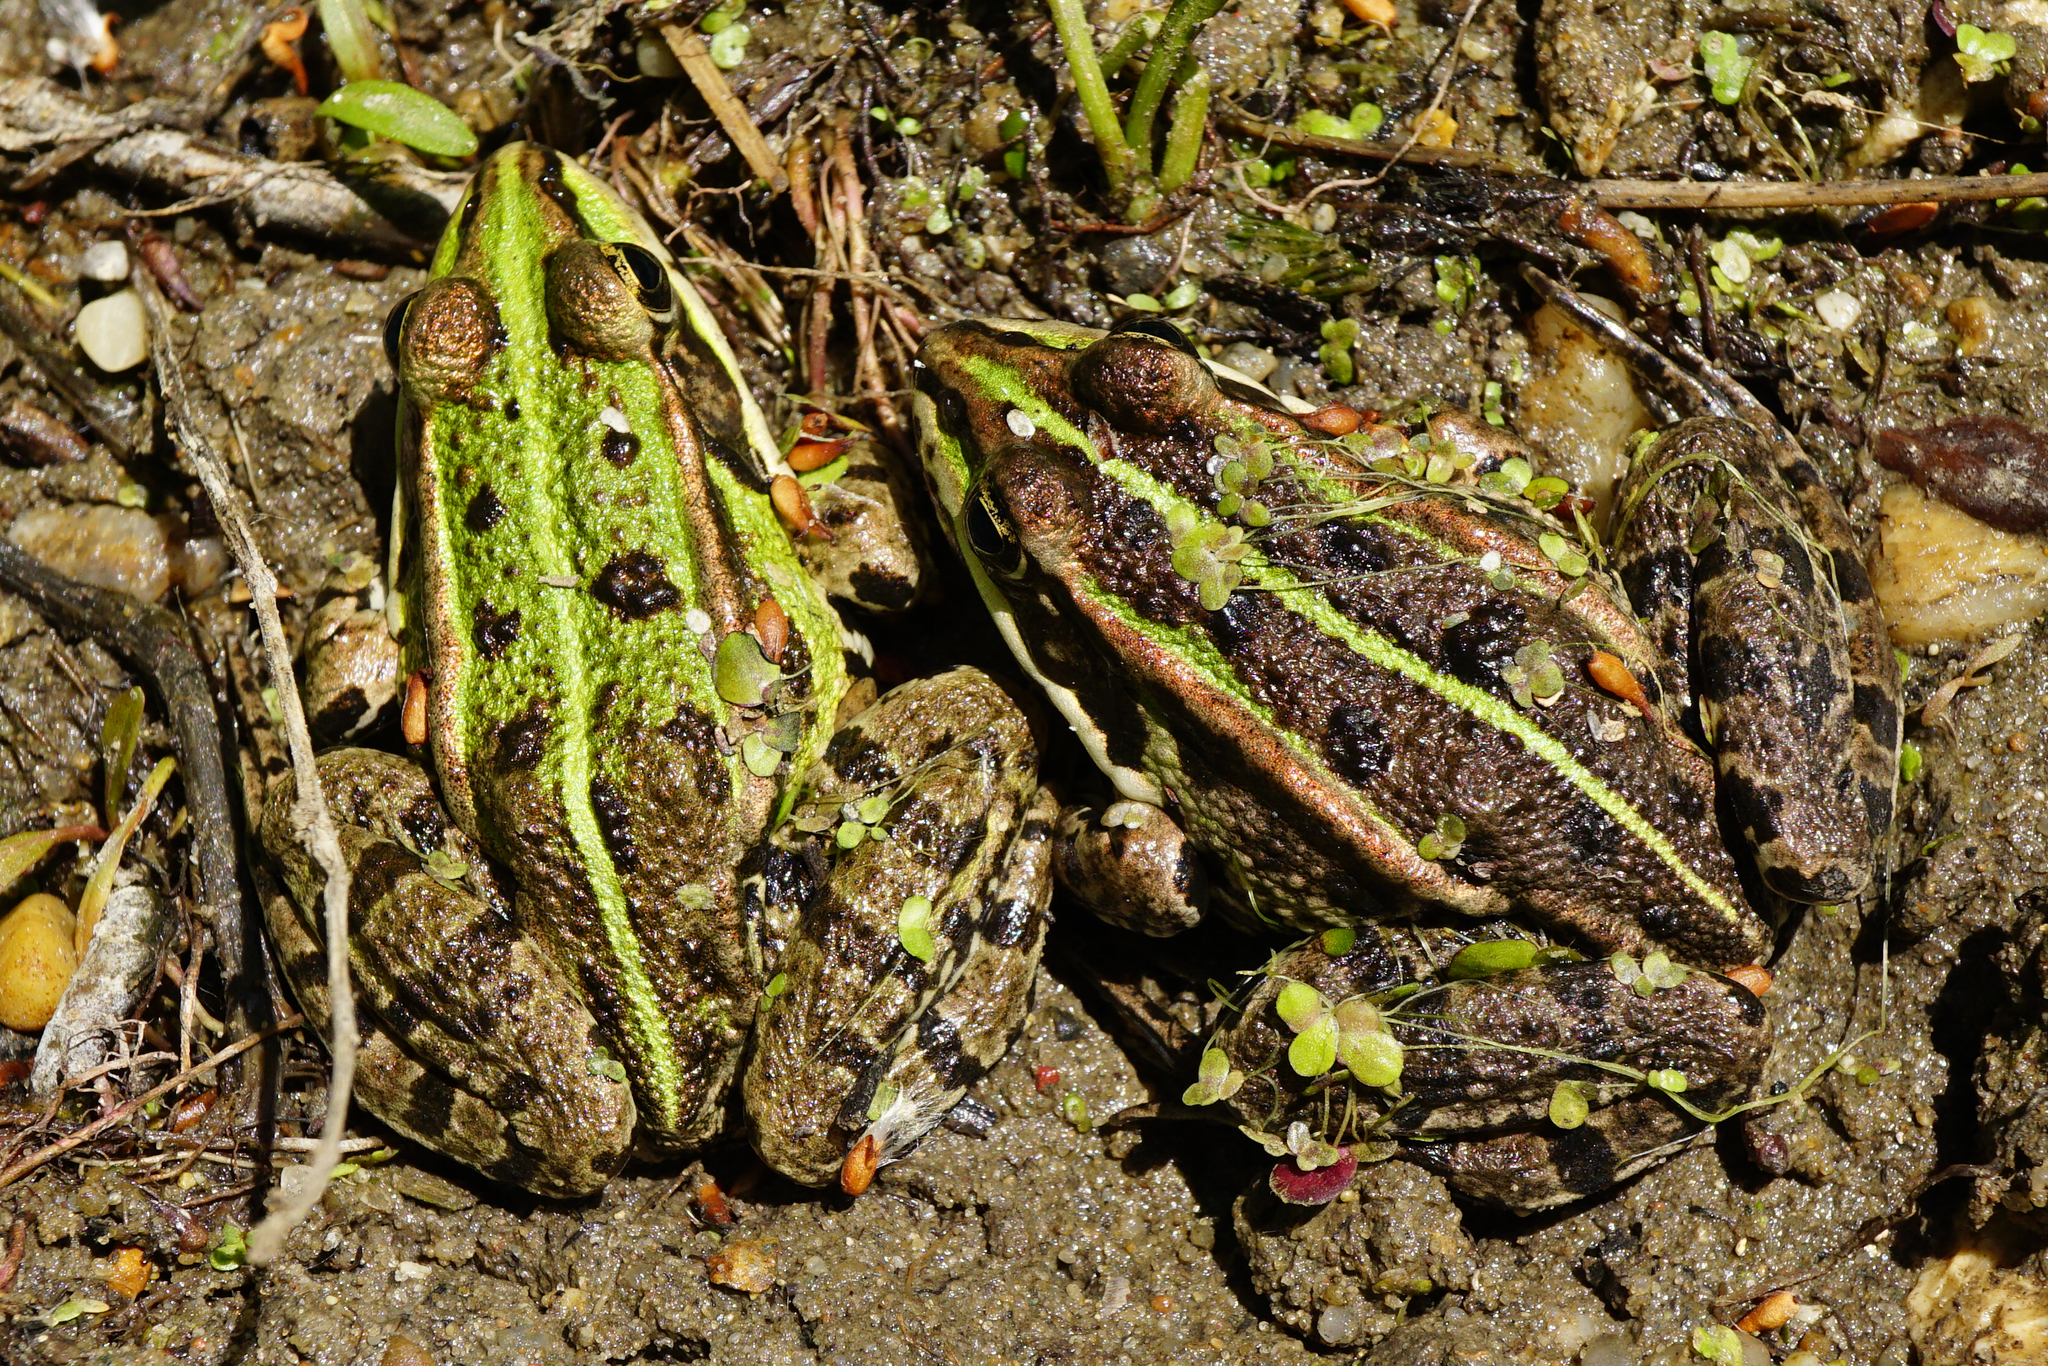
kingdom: Animalia
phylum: Chordata
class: Amphibia
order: Anura
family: Ranidae
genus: Pelophylax
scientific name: Pelophylax
